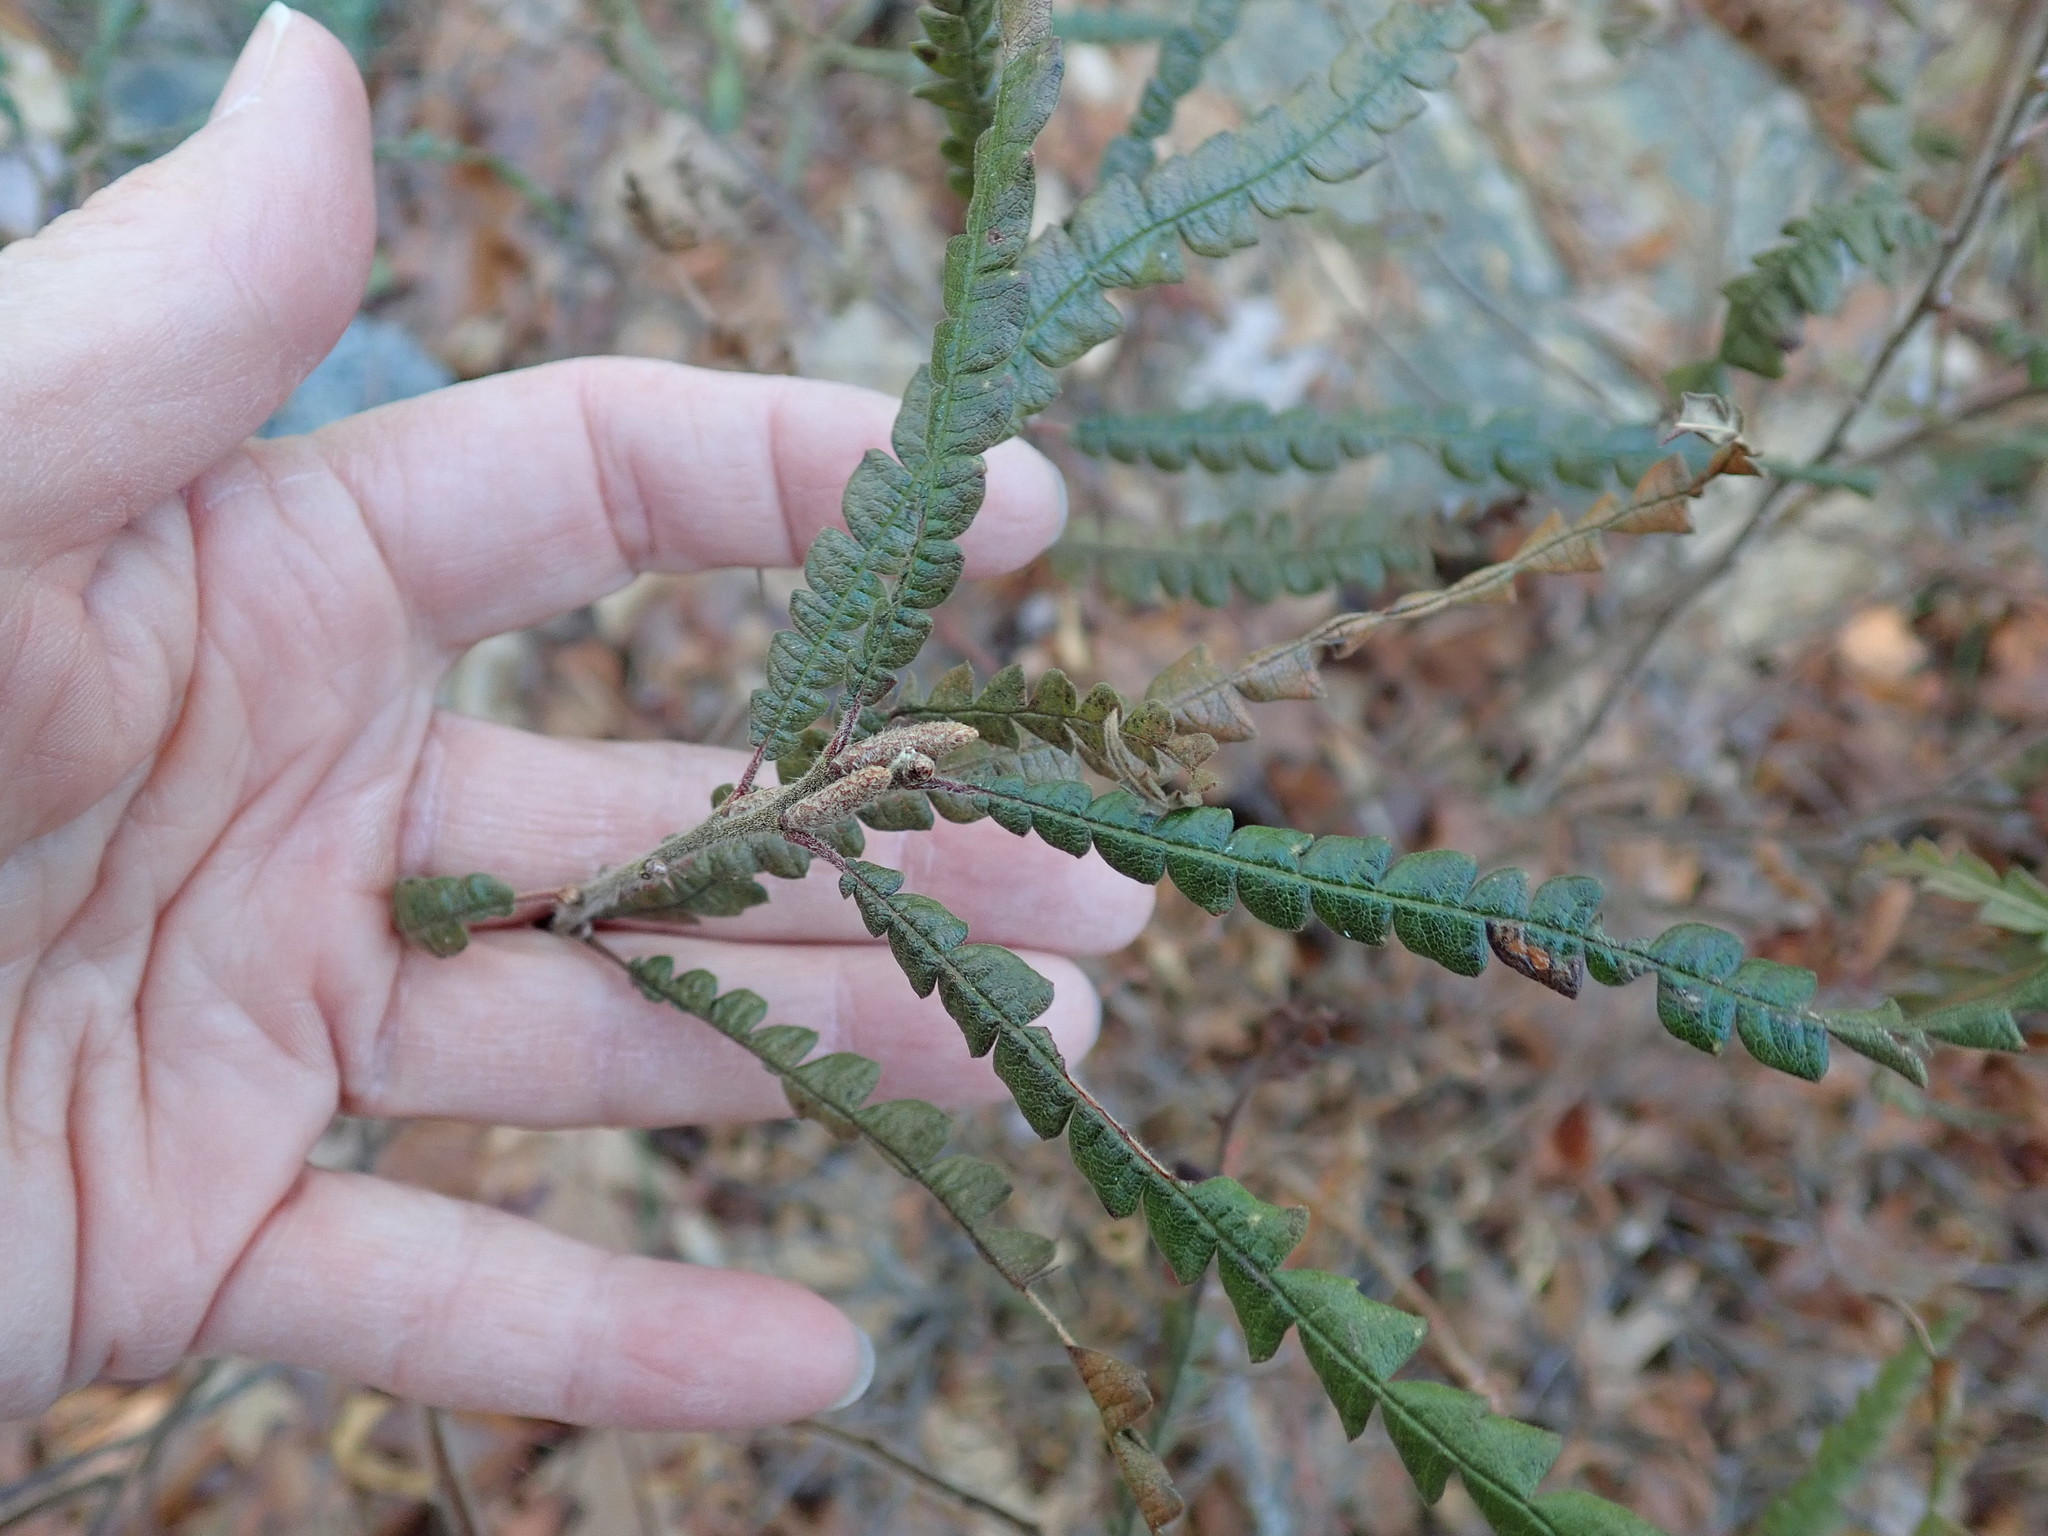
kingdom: Plantae
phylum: Tracheophyta
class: Magnoliopsida
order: Fagales
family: Myricaceae
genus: Comptonia
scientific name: Comptonia peregrina
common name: Sweet-fern
